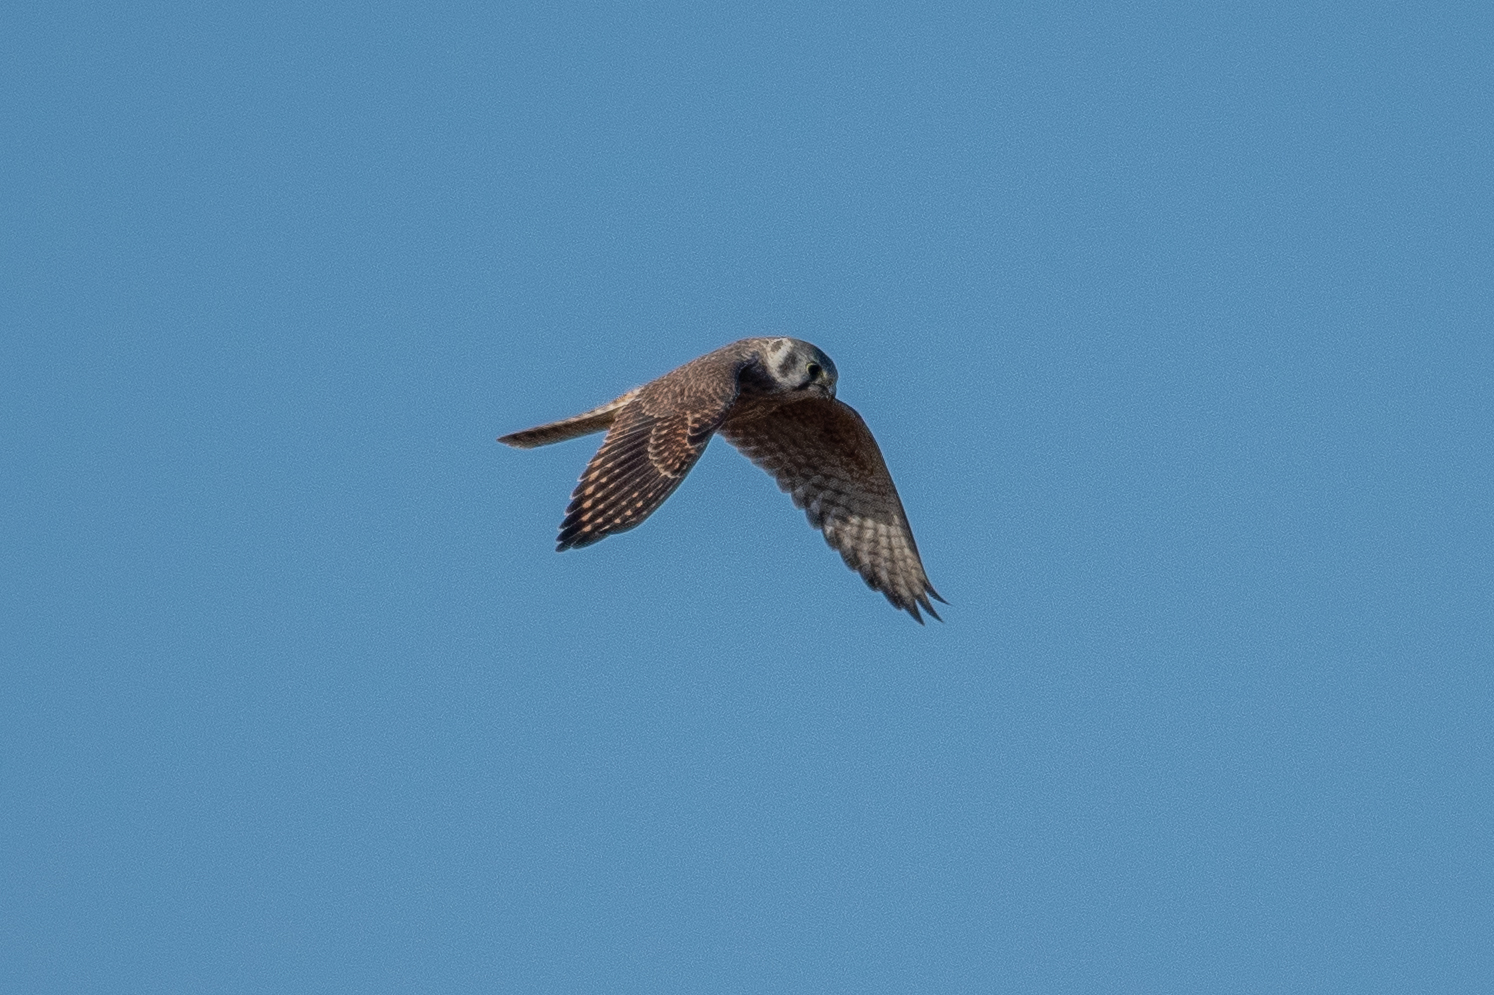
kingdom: Animalia
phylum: Chordata
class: Aves
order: Falconiformes
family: Falconidae
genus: Falco
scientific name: Falco sparverius
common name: American kestrel
